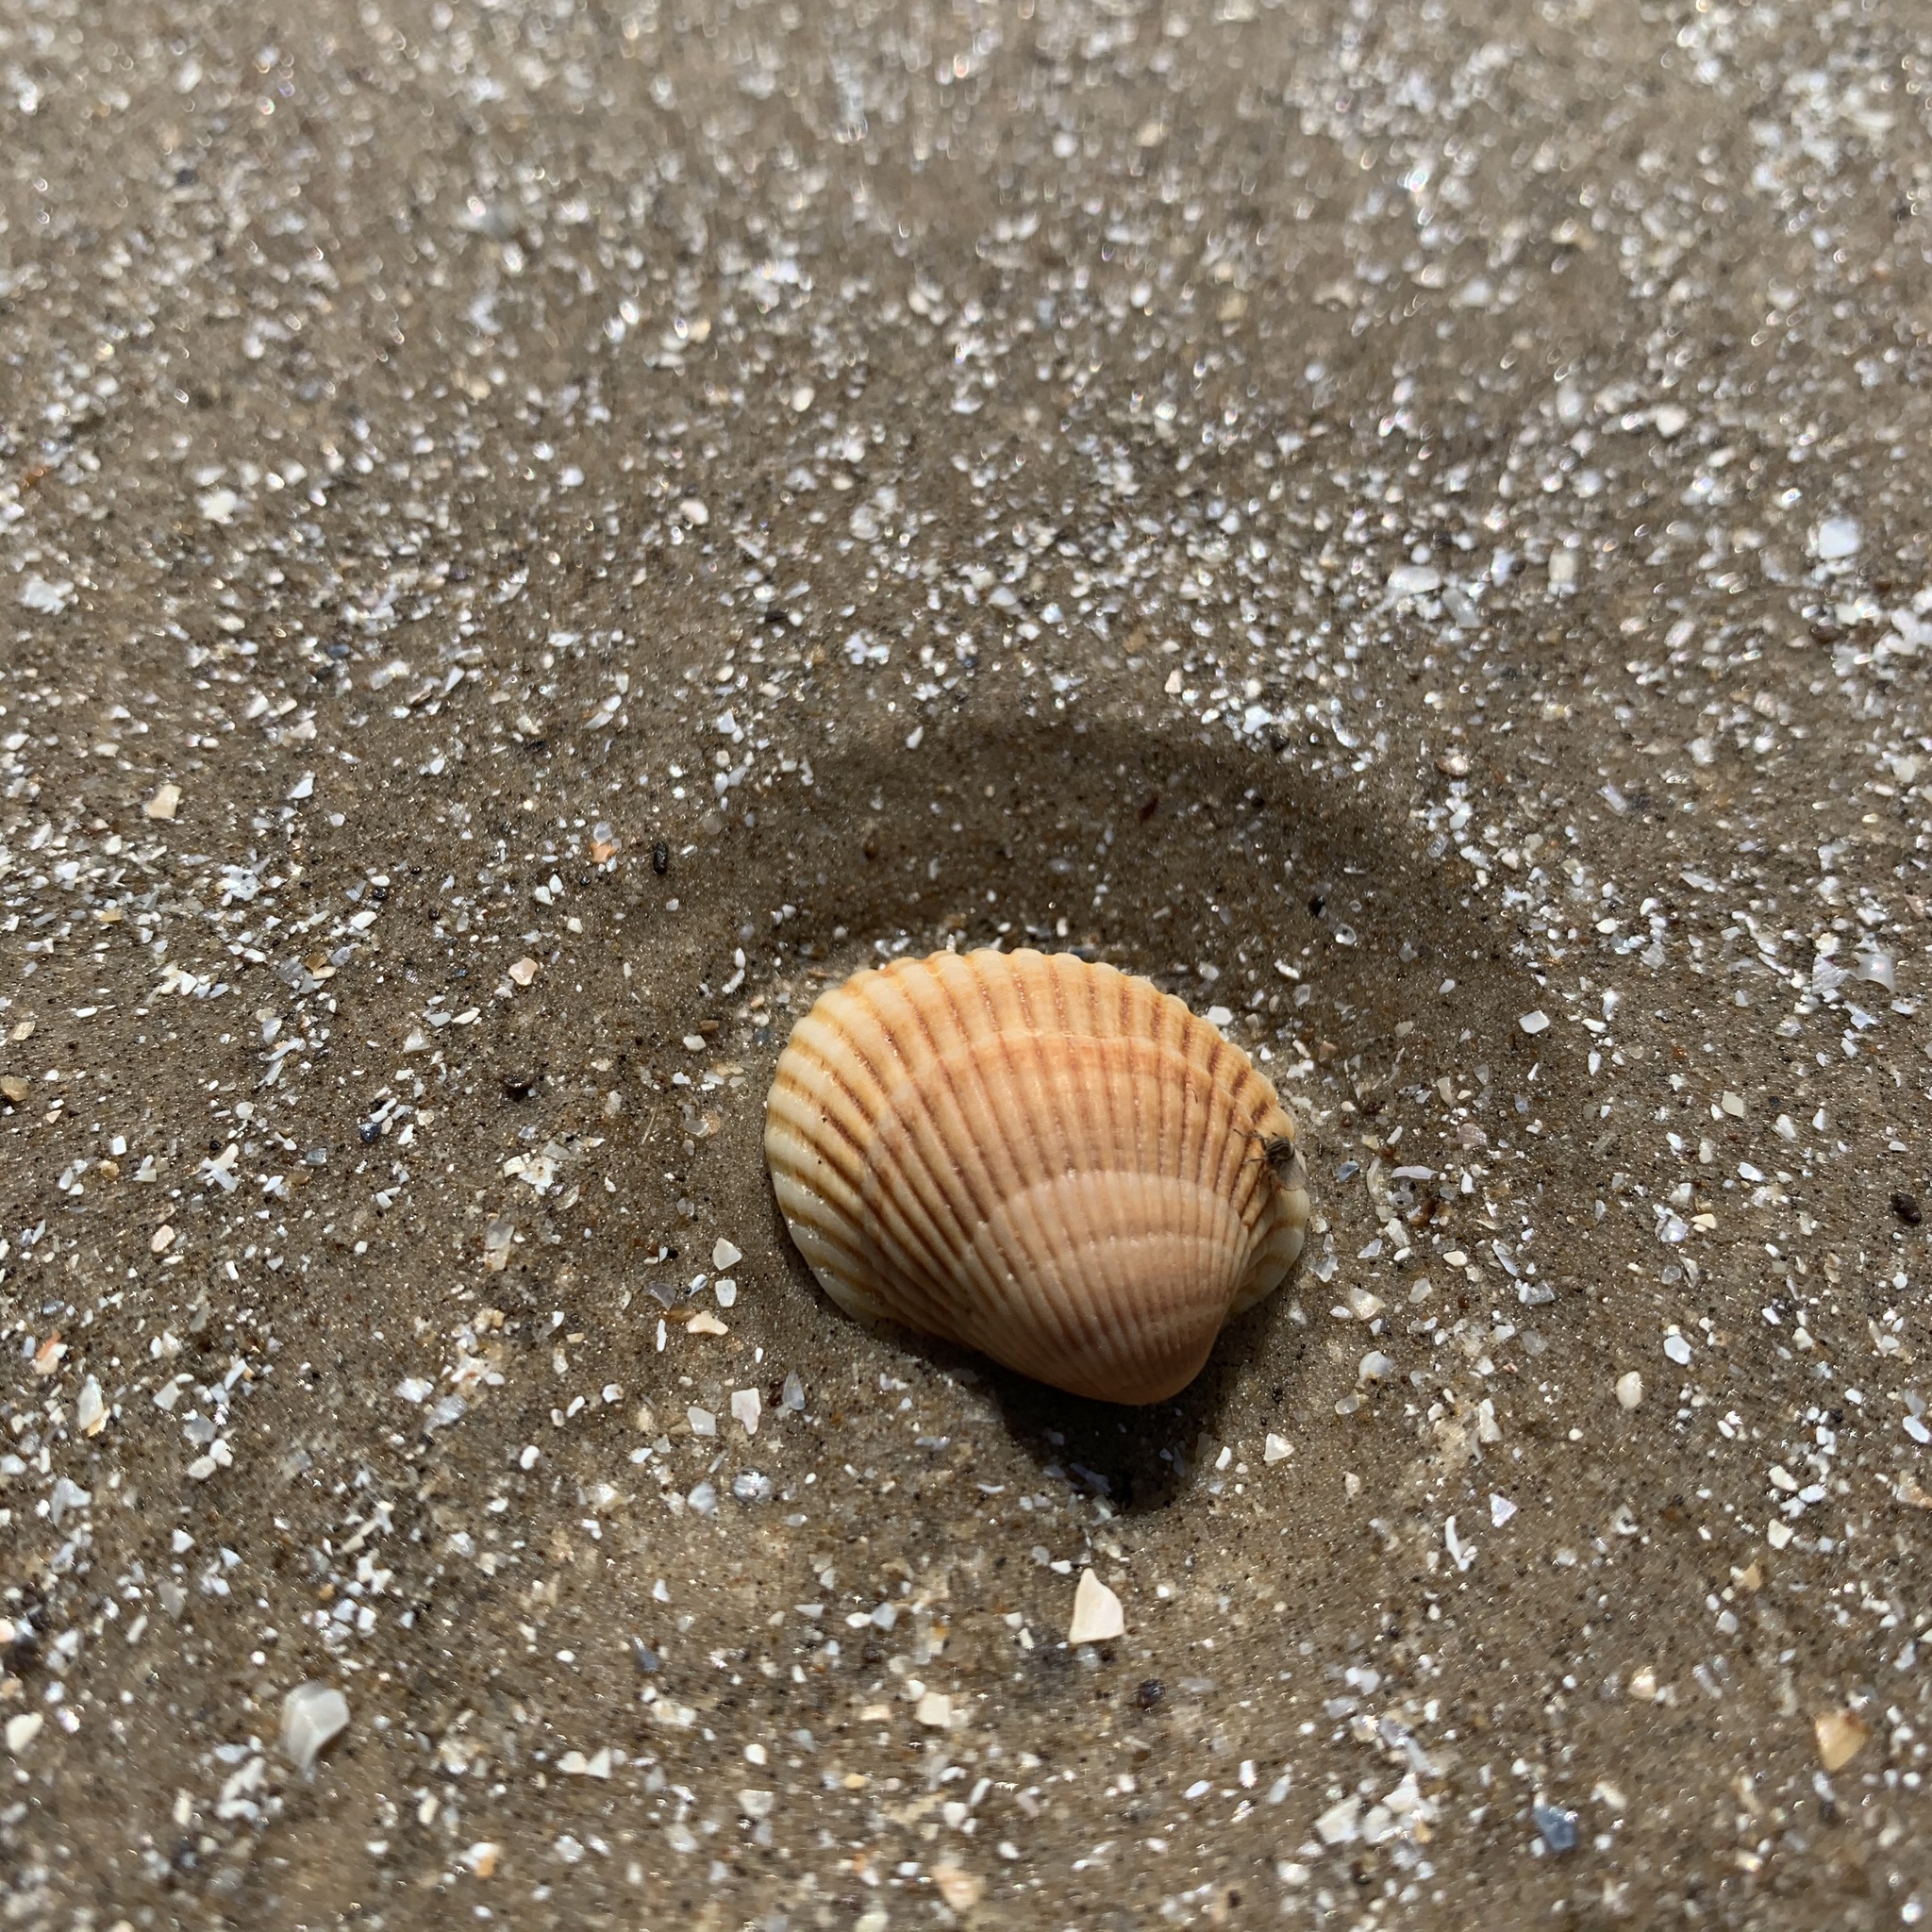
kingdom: Animalia
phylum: Mollusca
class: Bivalvia
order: Arcida
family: Arcidae
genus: Lunarca
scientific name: Lunarca ovalis
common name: Blood ark
